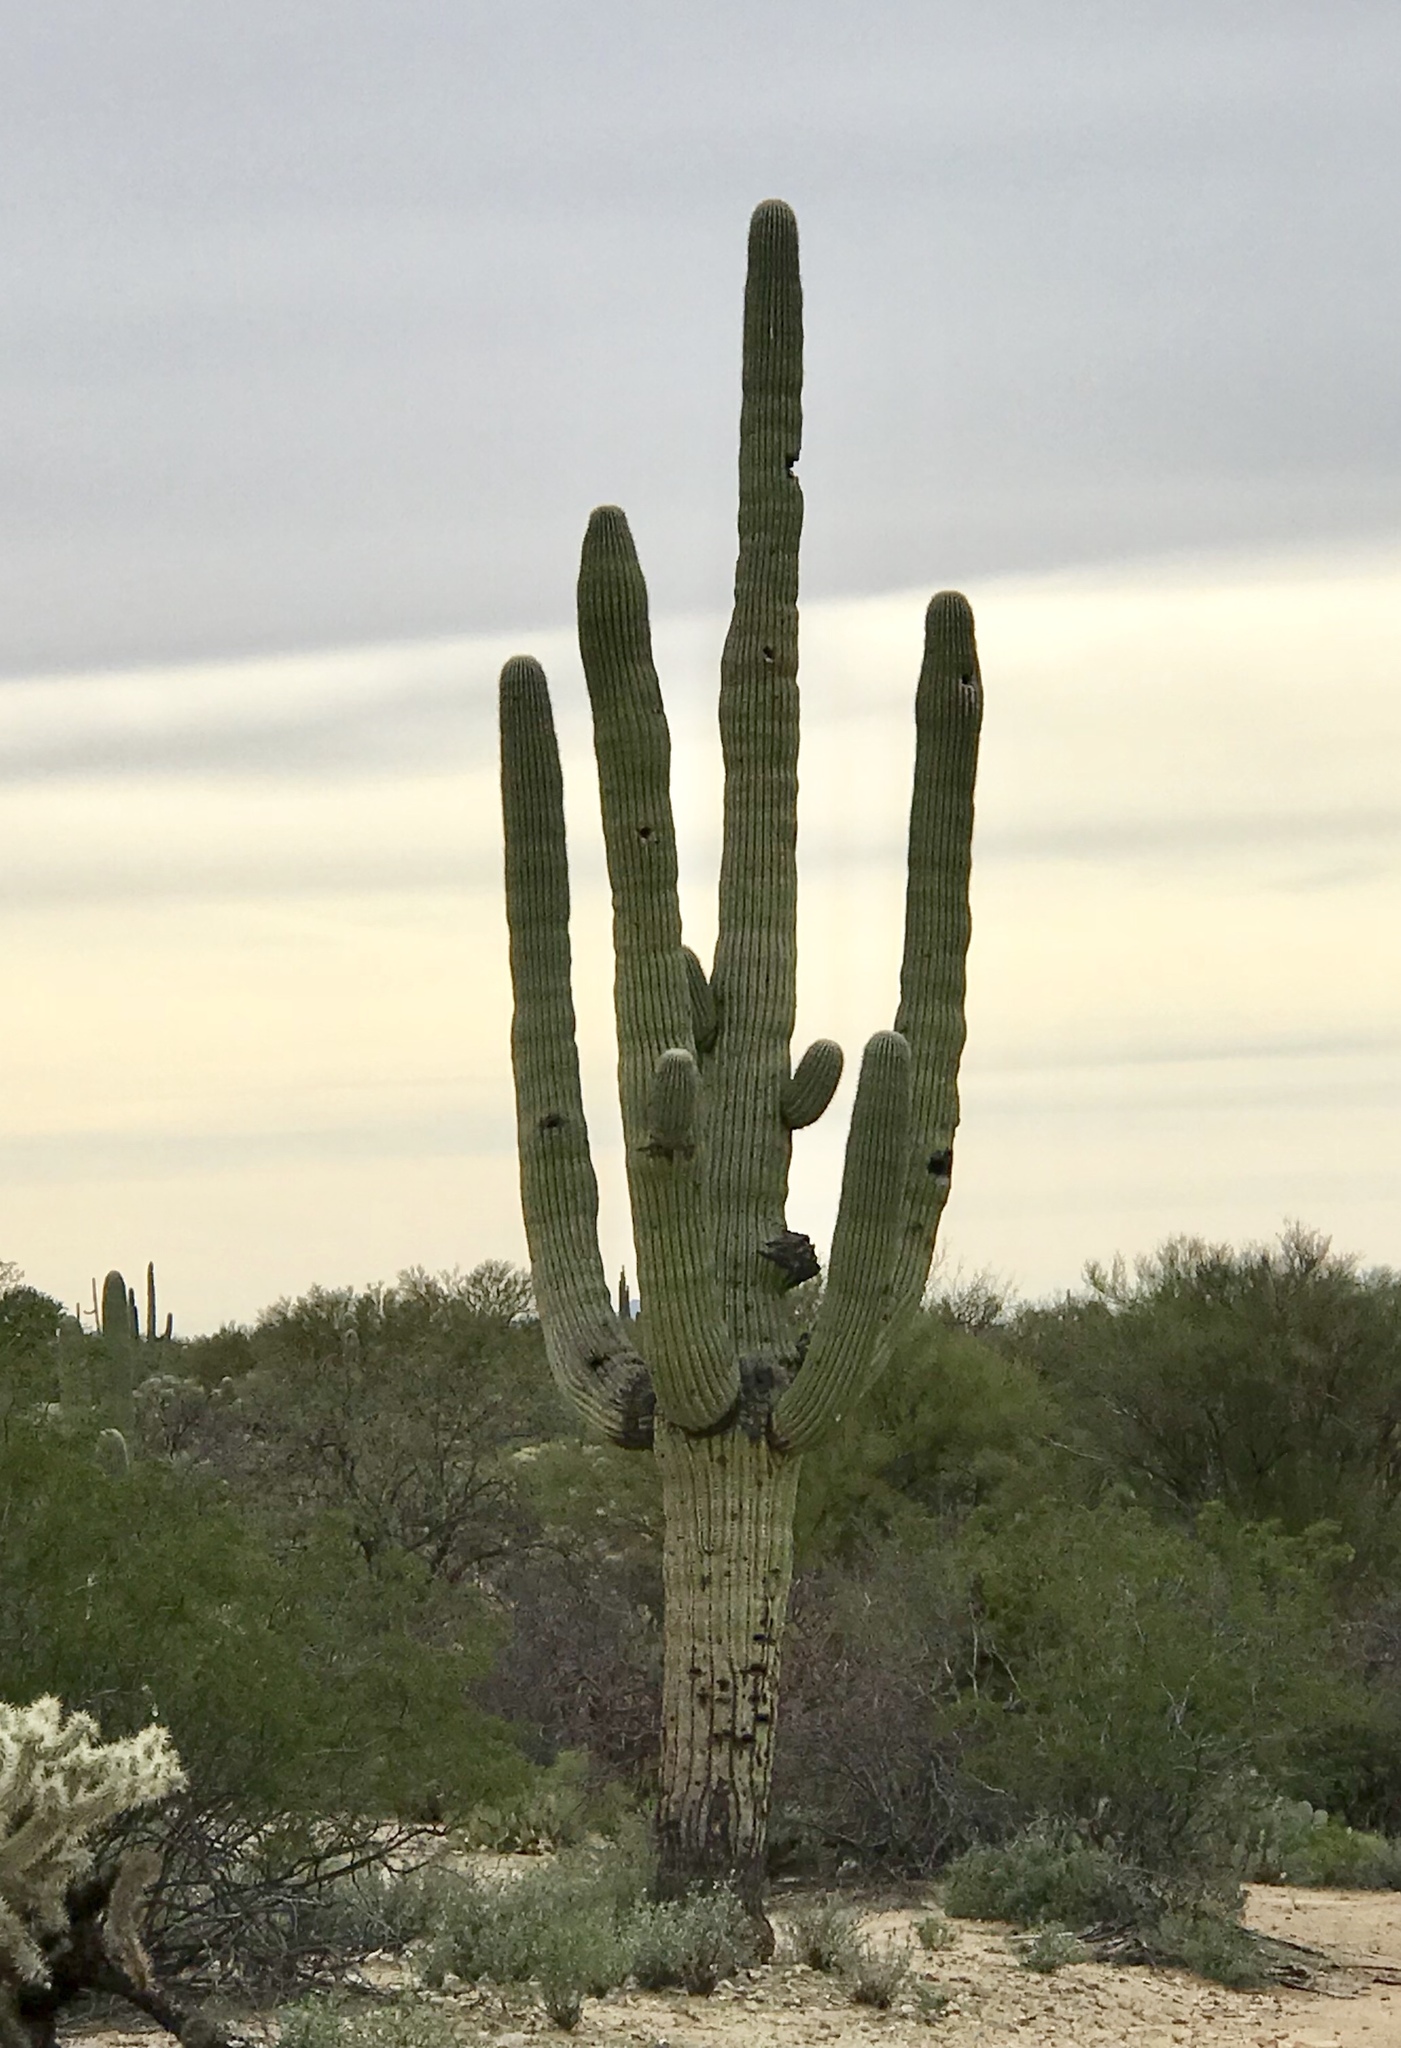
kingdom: Plantae
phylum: Tracheophyta
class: Magnoliopsida
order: Caryophyllales
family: Cactaceae
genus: Carnegiea
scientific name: Carnegiea gigantea
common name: Saguaro
